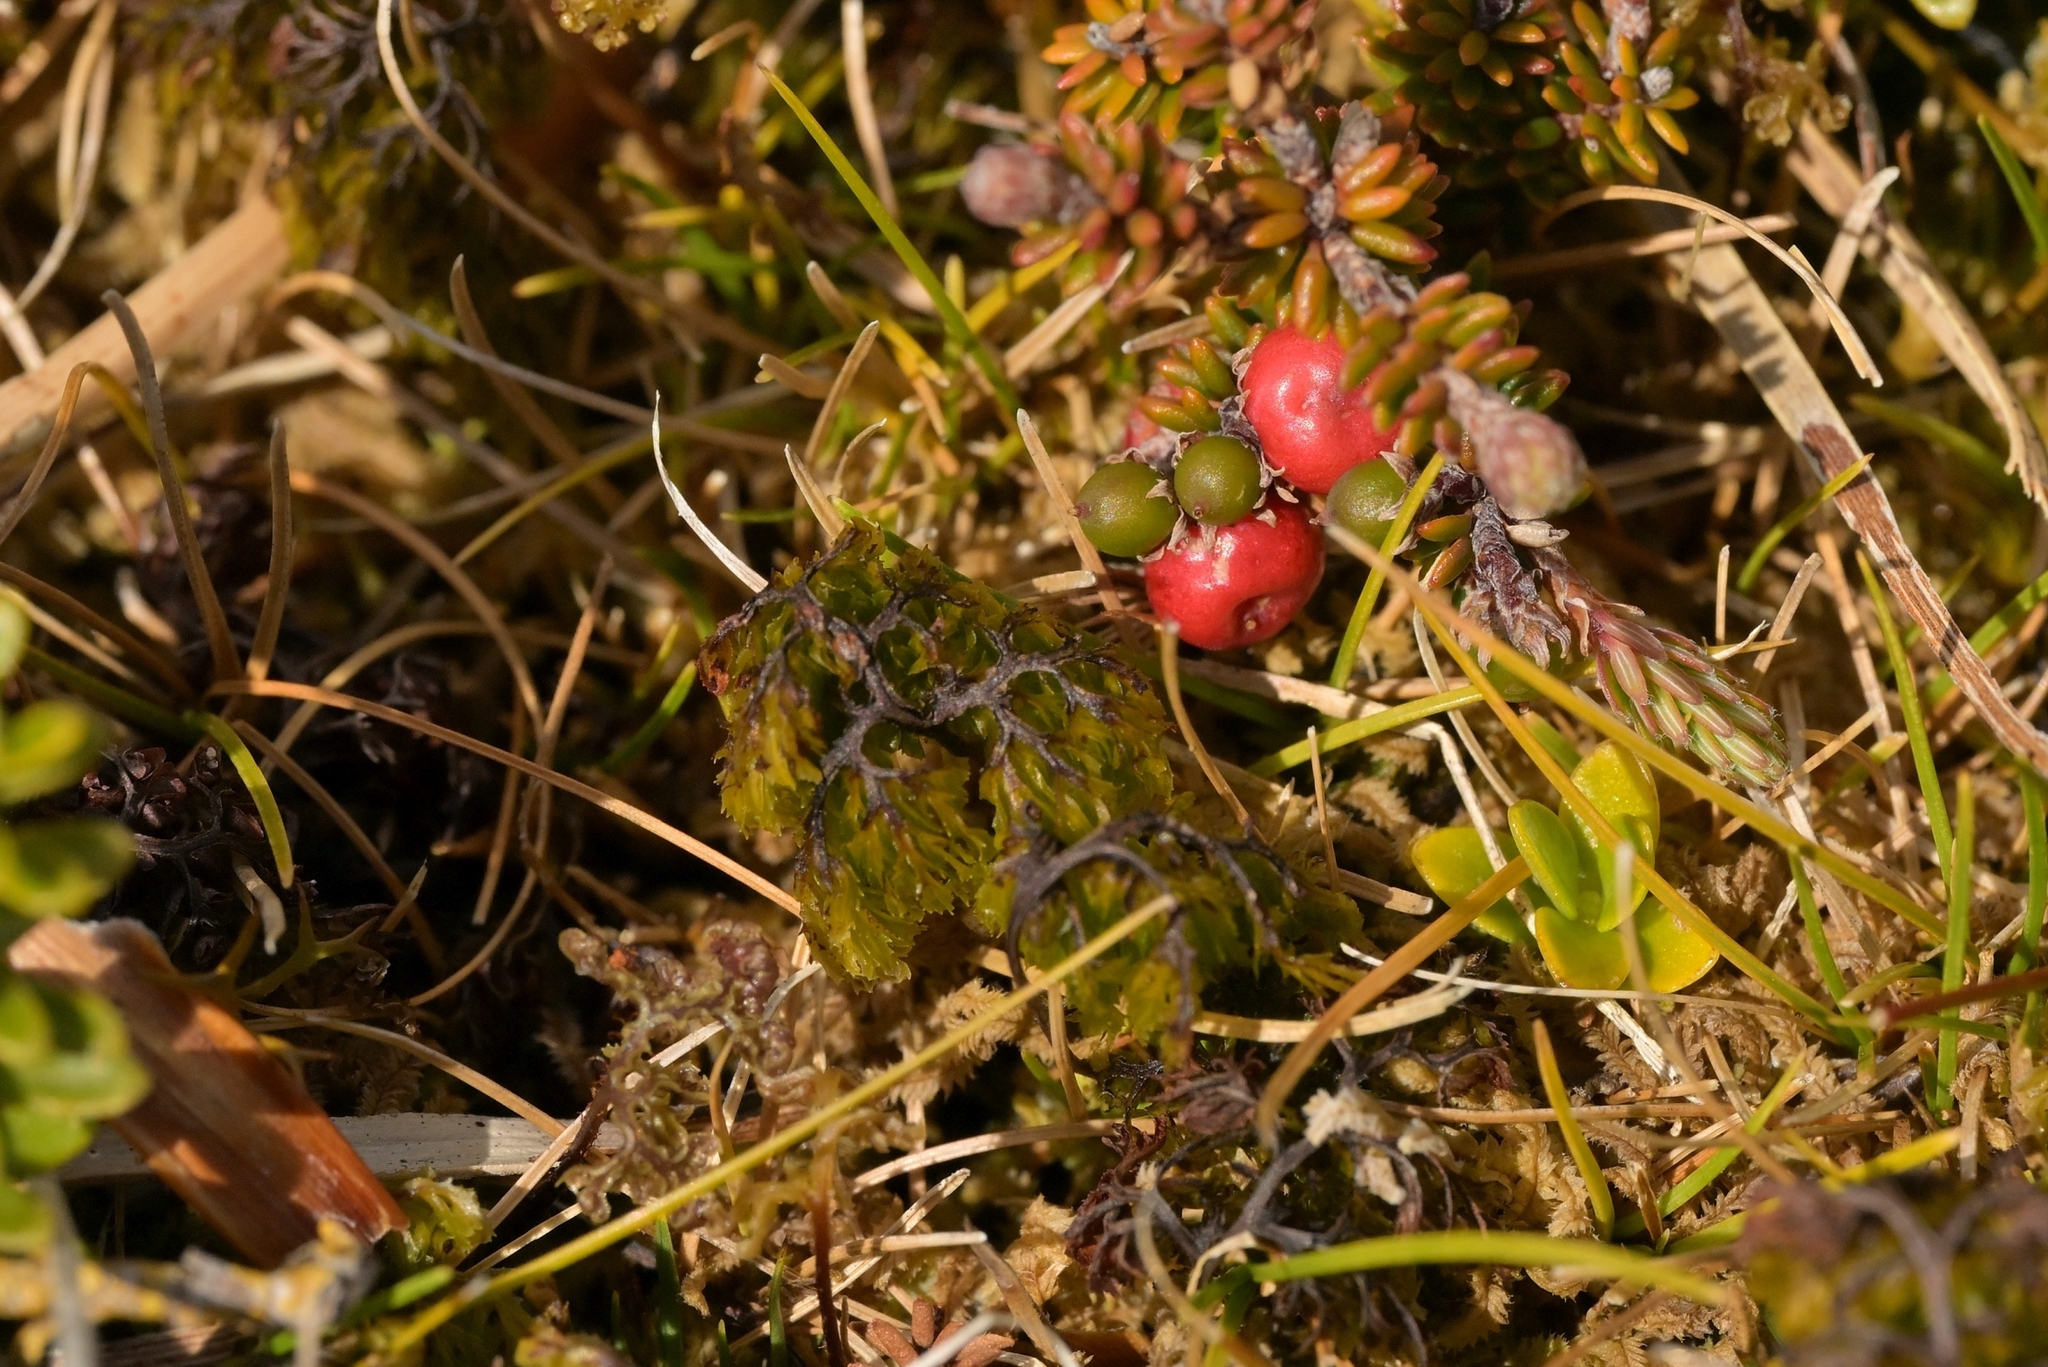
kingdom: Plantae
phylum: Tracheophyta
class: Polypodiopsida
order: Hymenophyllales
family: Hymenophyllaceae
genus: Hymenophyllum
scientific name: Hymenophyllum multifidum
